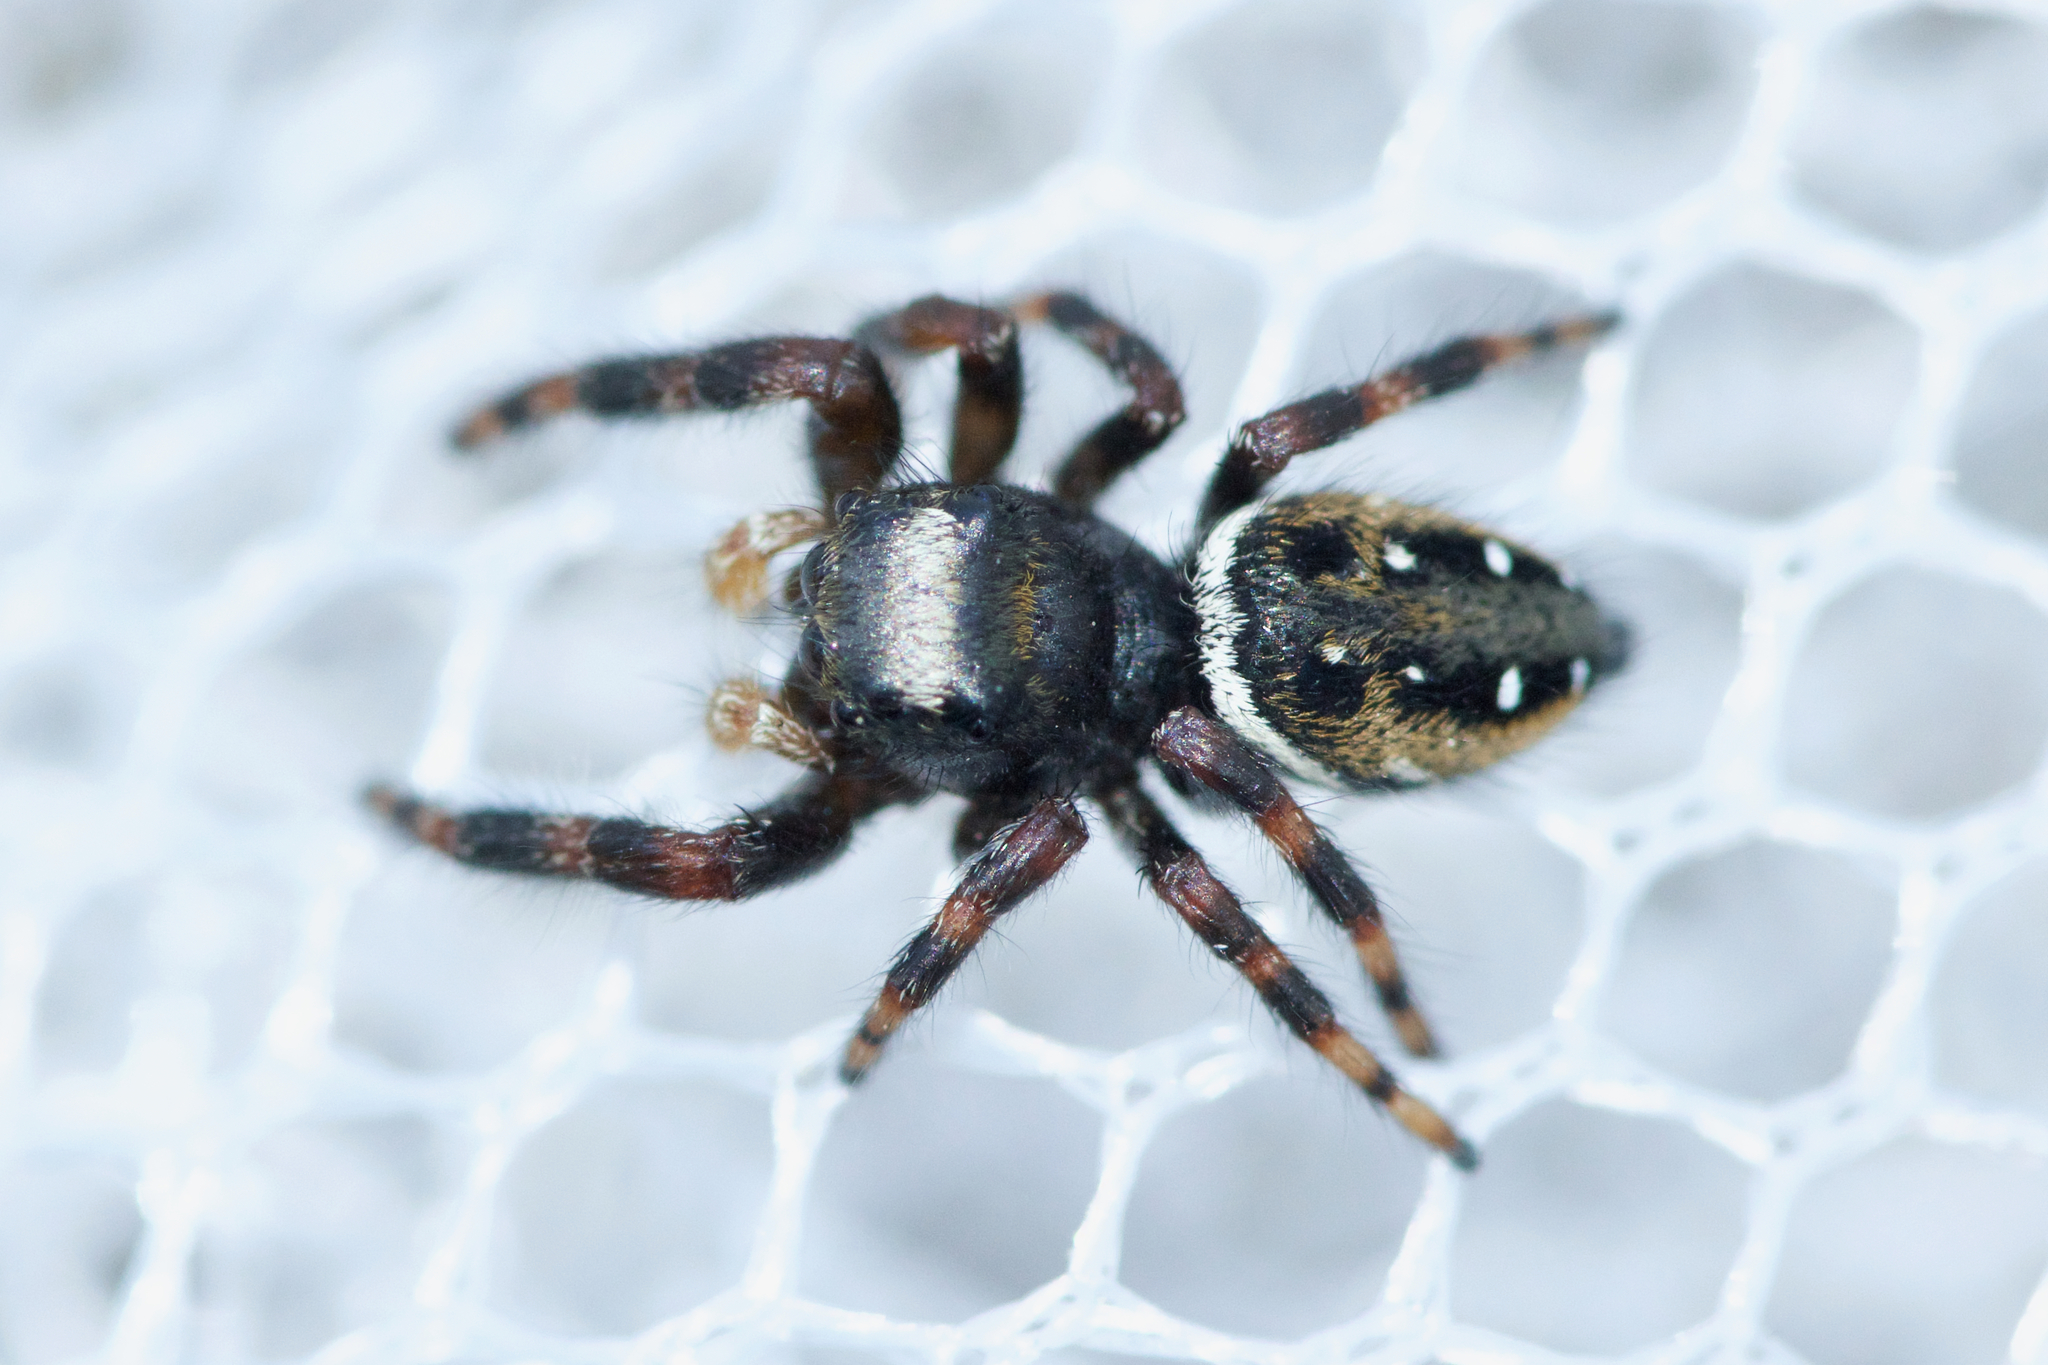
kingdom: Animalia
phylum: Arthropoda
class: Arachnida
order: Araneae
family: Salticidae
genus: Phidippus
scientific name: Phidippus clarus
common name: Brilliant jumping spider
